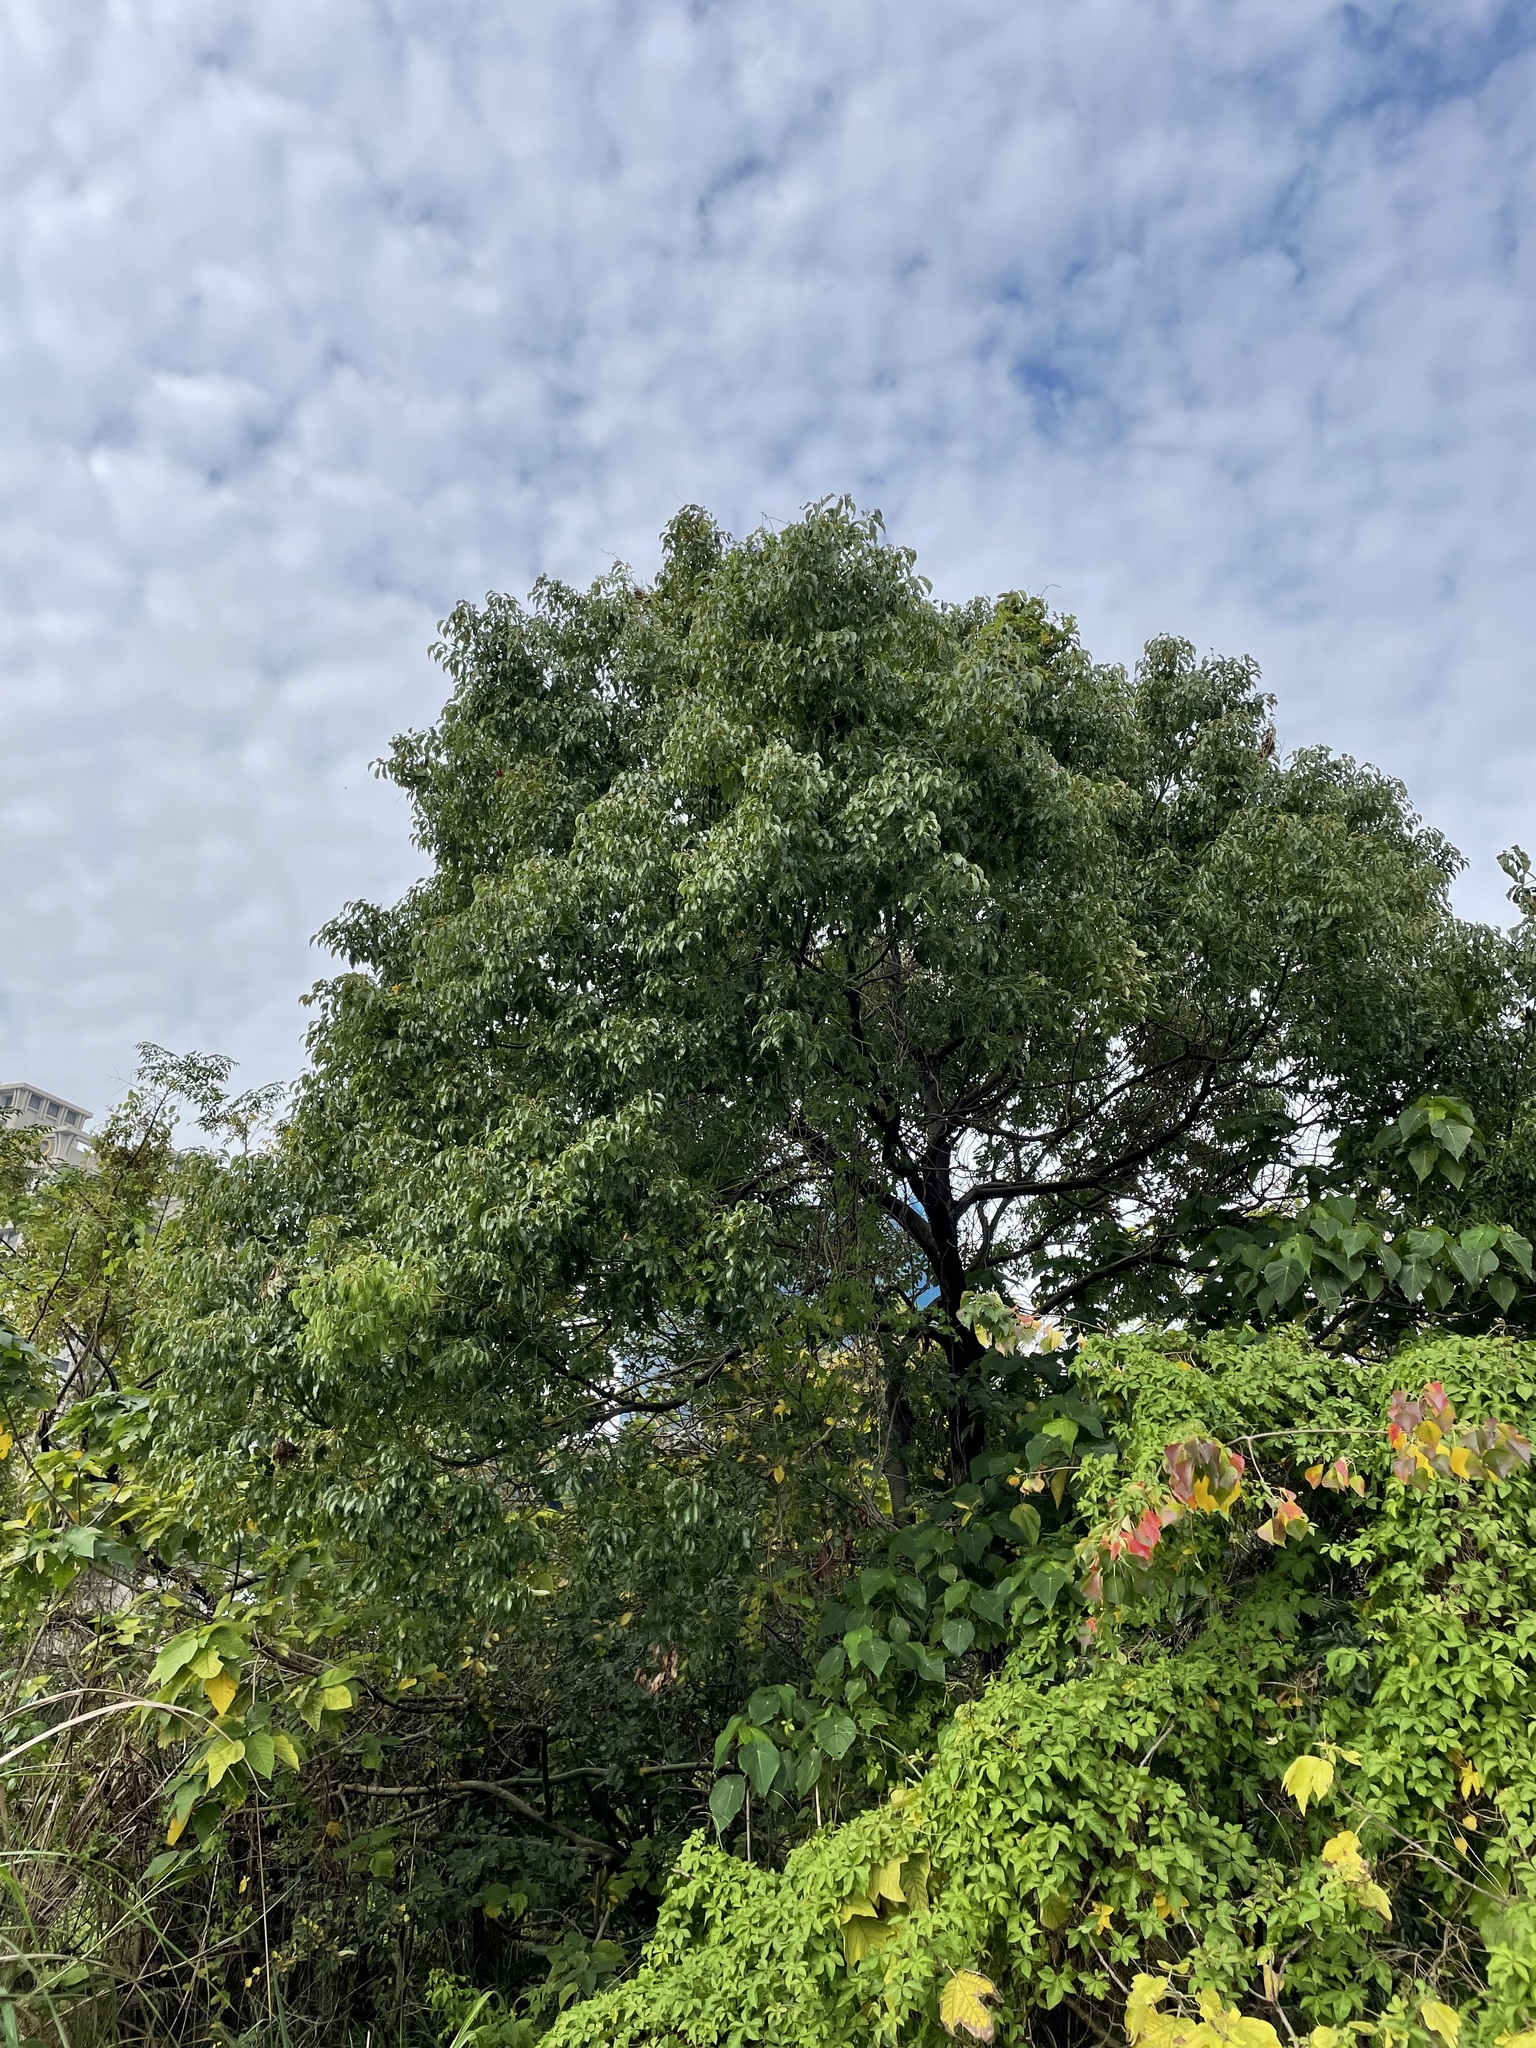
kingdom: Plantae
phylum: Tracheophyta
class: Magnoliopsida
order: Laurales
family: Lauraceae
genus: Cinnamomum
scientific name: Cinnamomum camphora
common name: Camphortree
